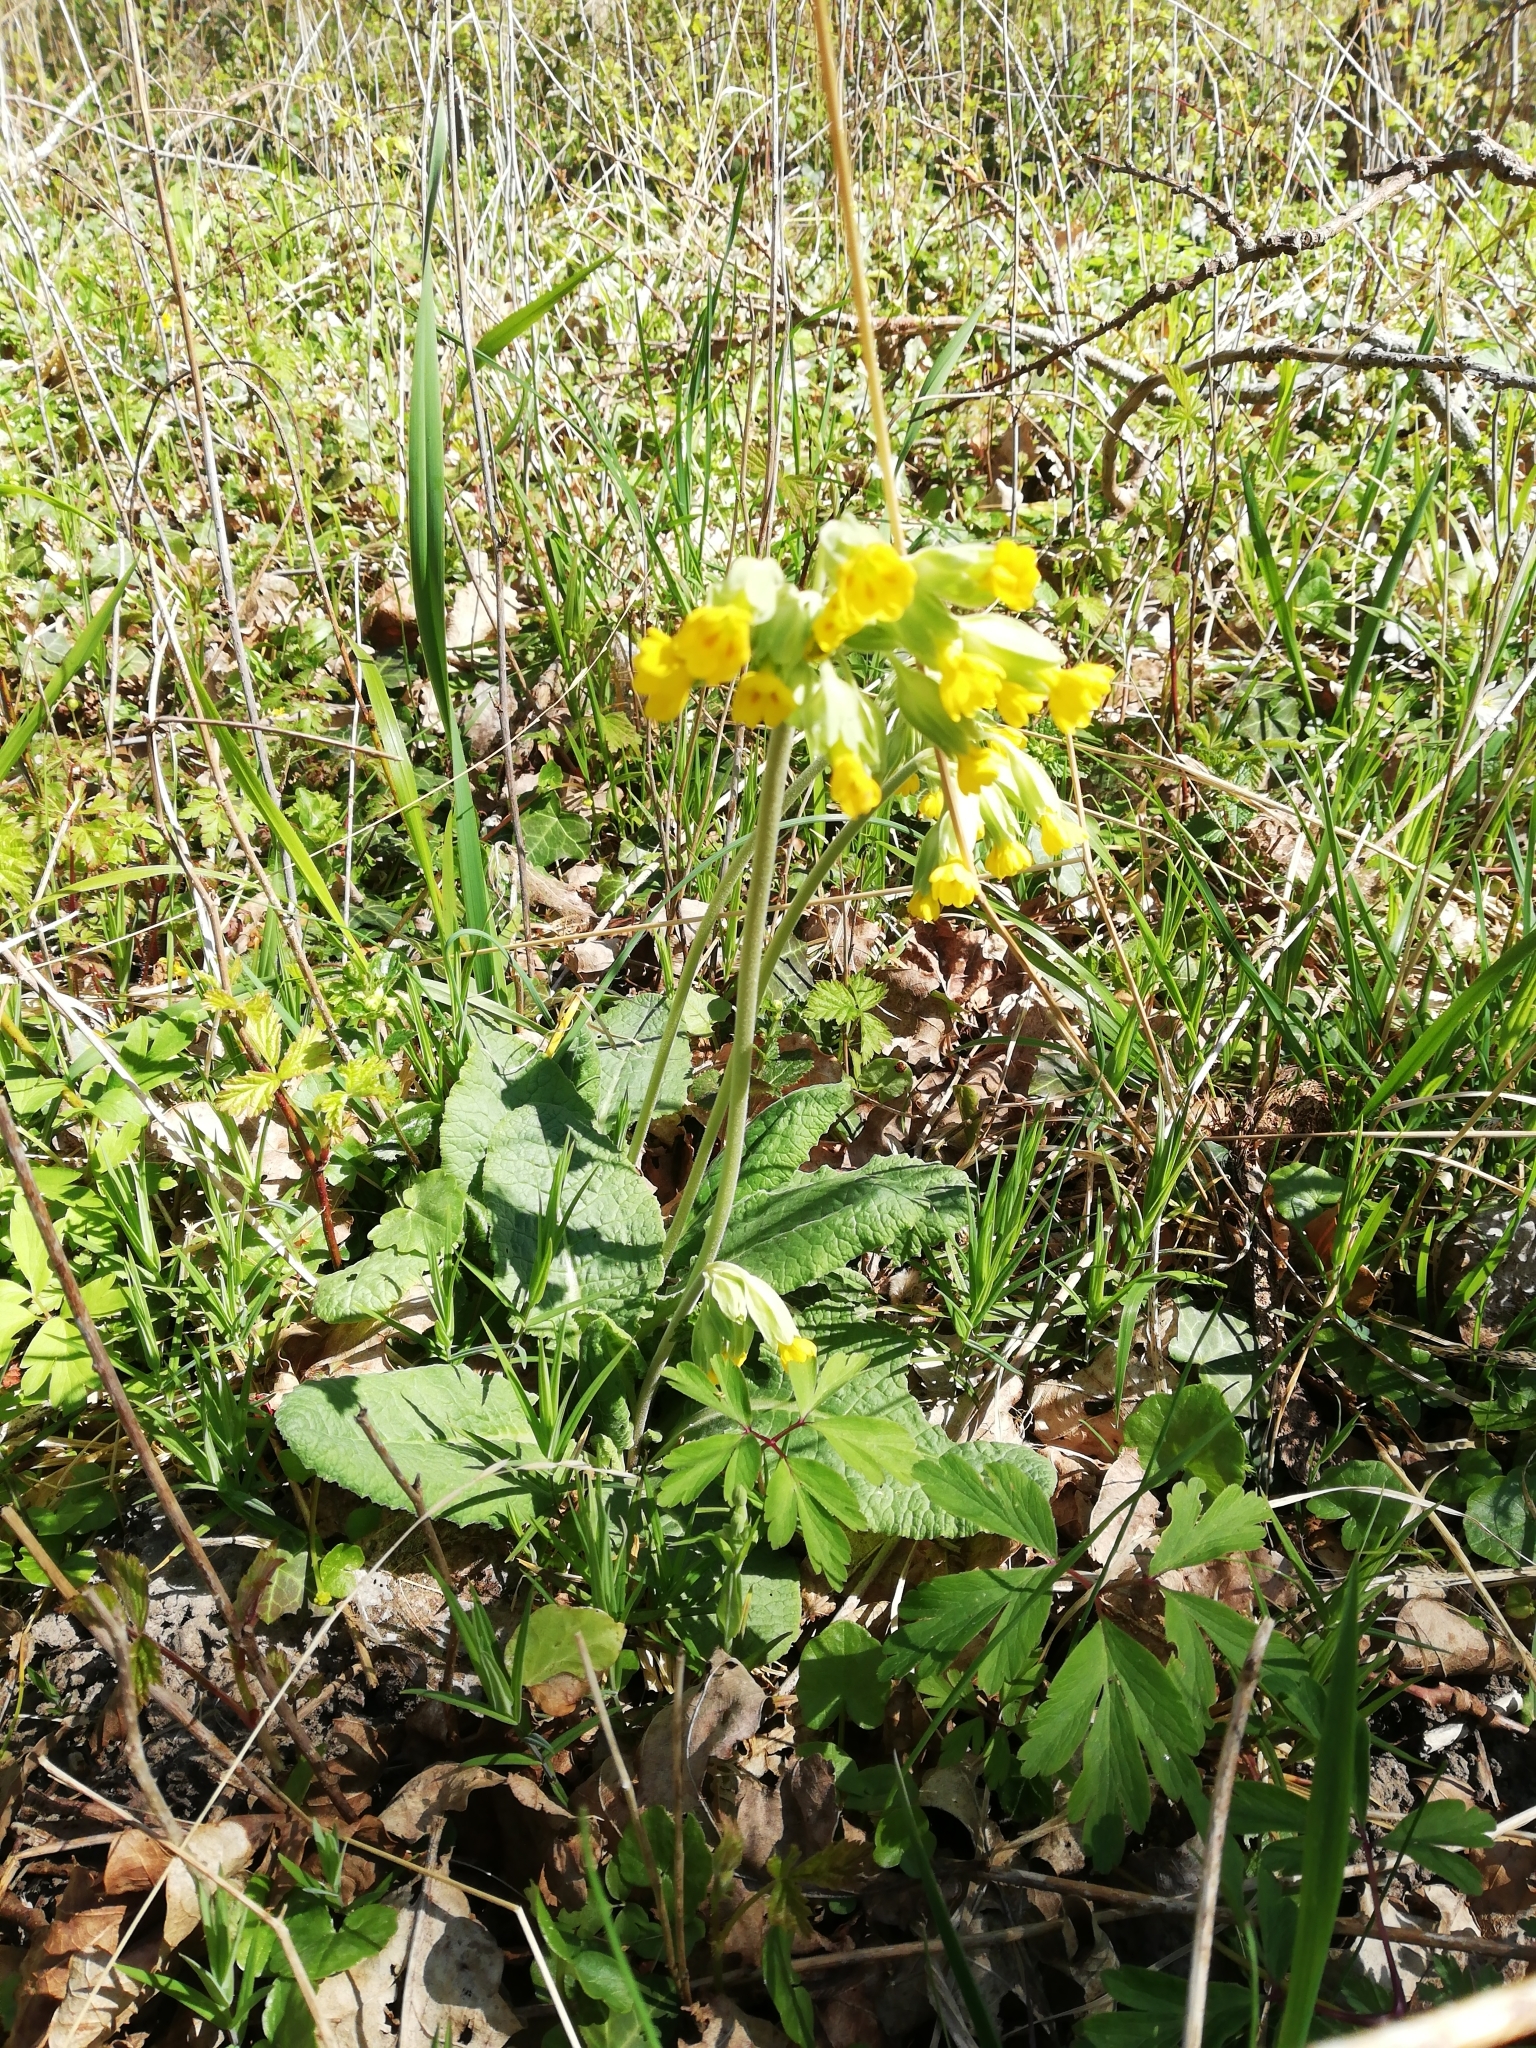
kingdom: Plantae
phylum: Tracheophyta
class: Magnoliopsida
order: Ericales
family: Primulaceae
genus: Primula
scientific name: Primula veris
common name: Cowslip
